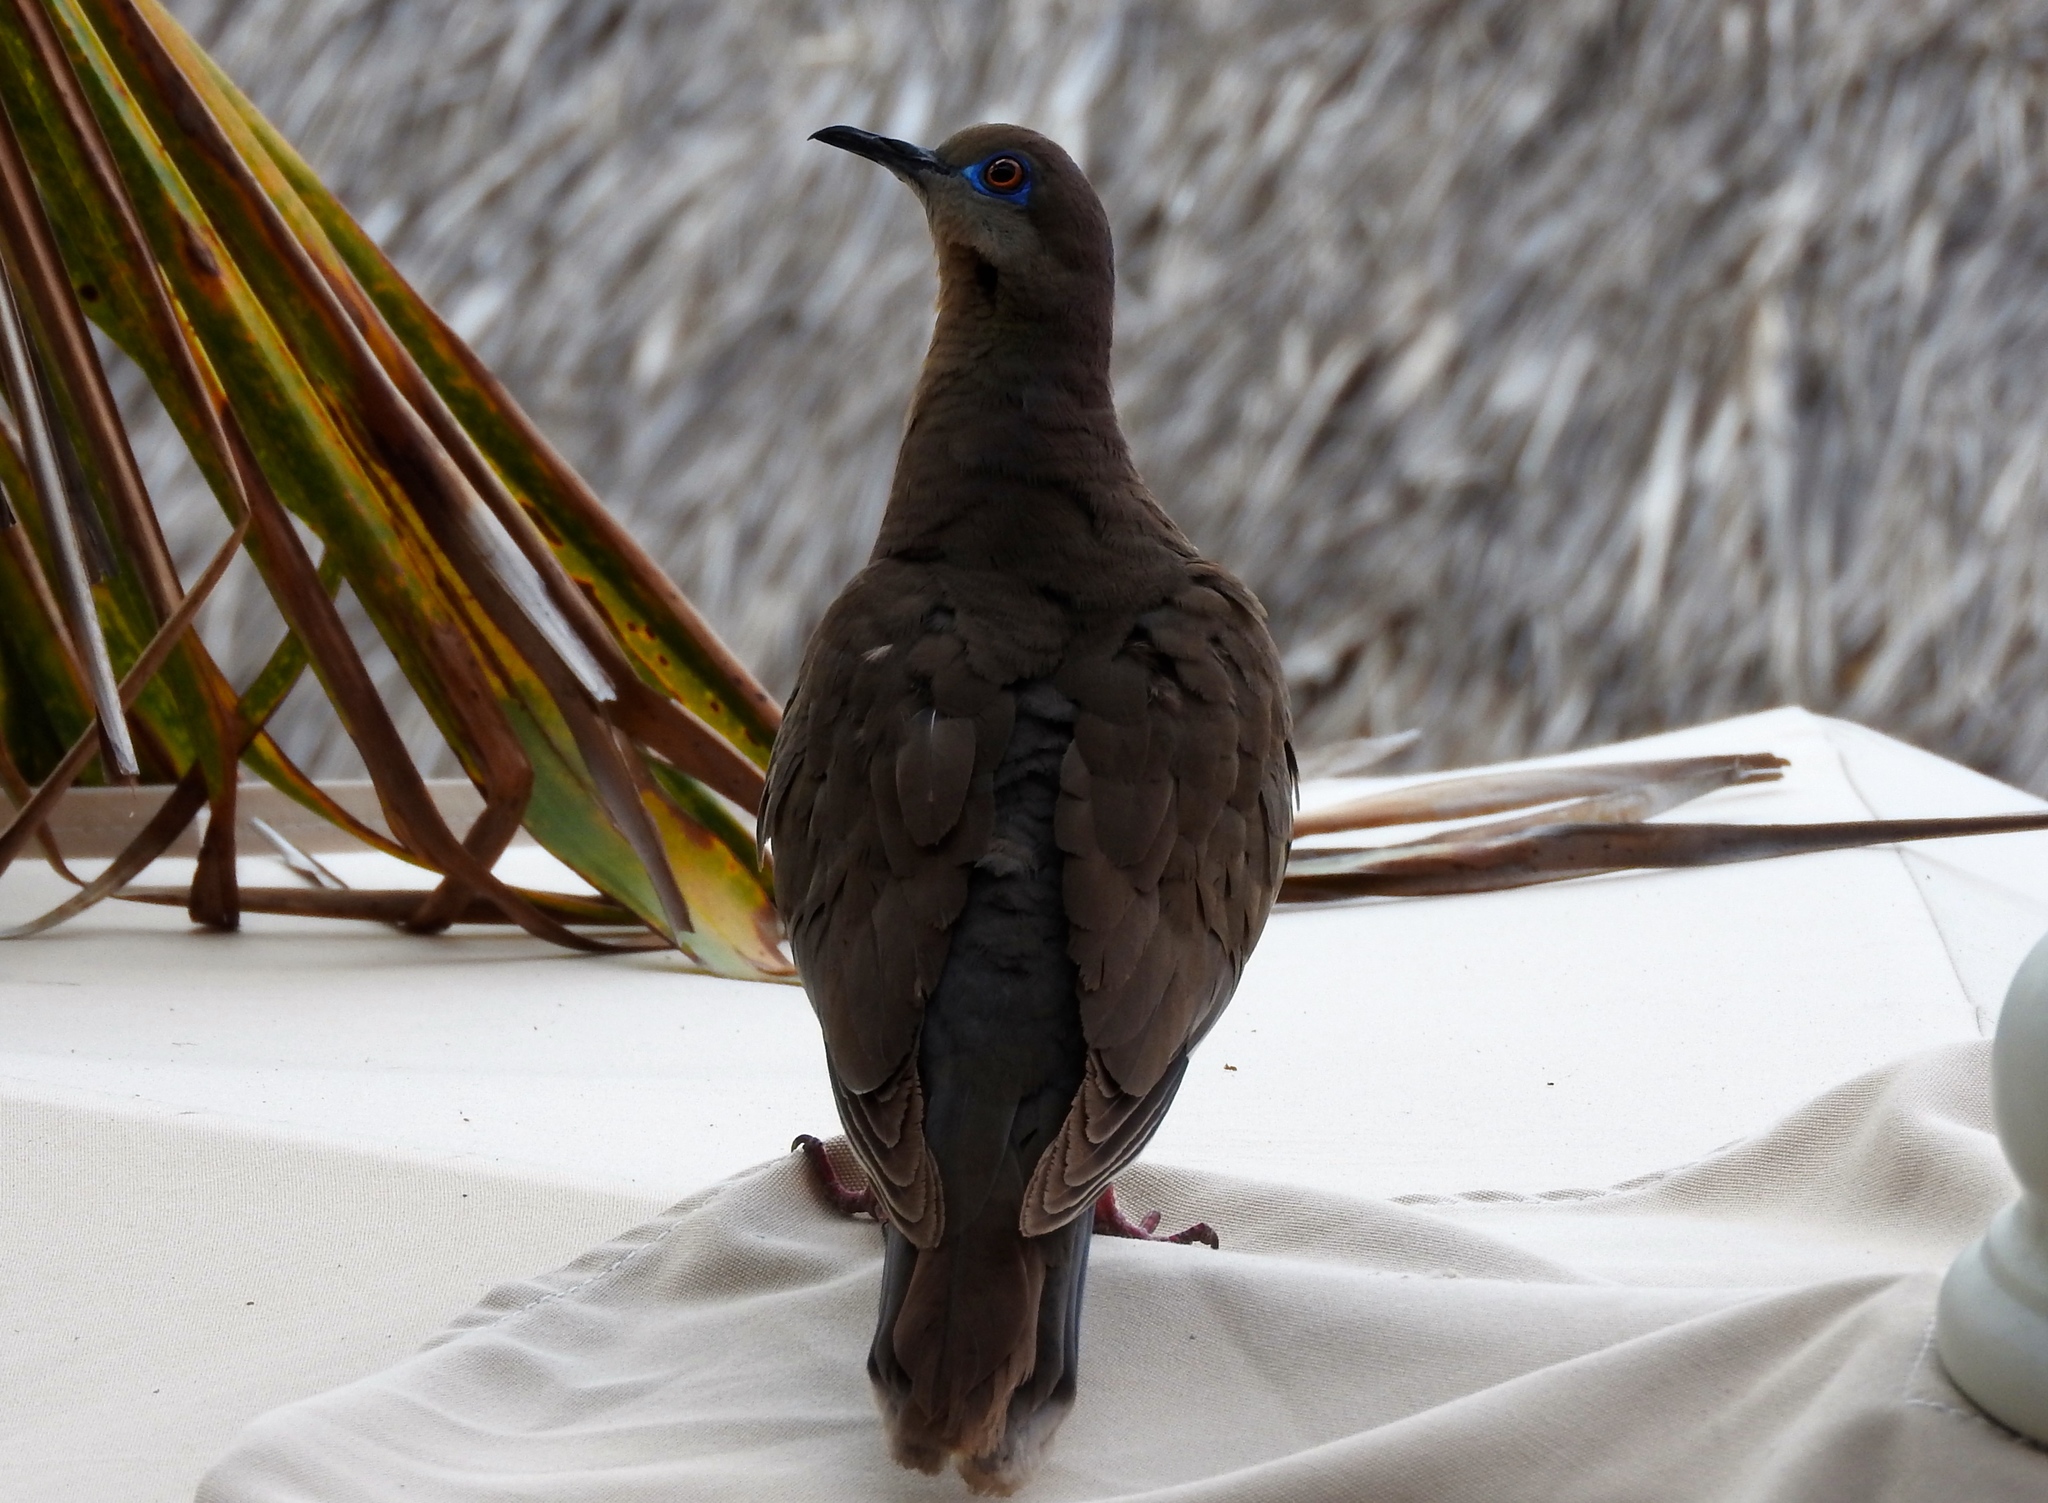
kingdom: Animalia
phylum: Chordata
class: Aves
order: Columbiformes
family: Columbidae
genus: Zenaida
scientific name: Zenaida asiatica
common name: White-winged dove
